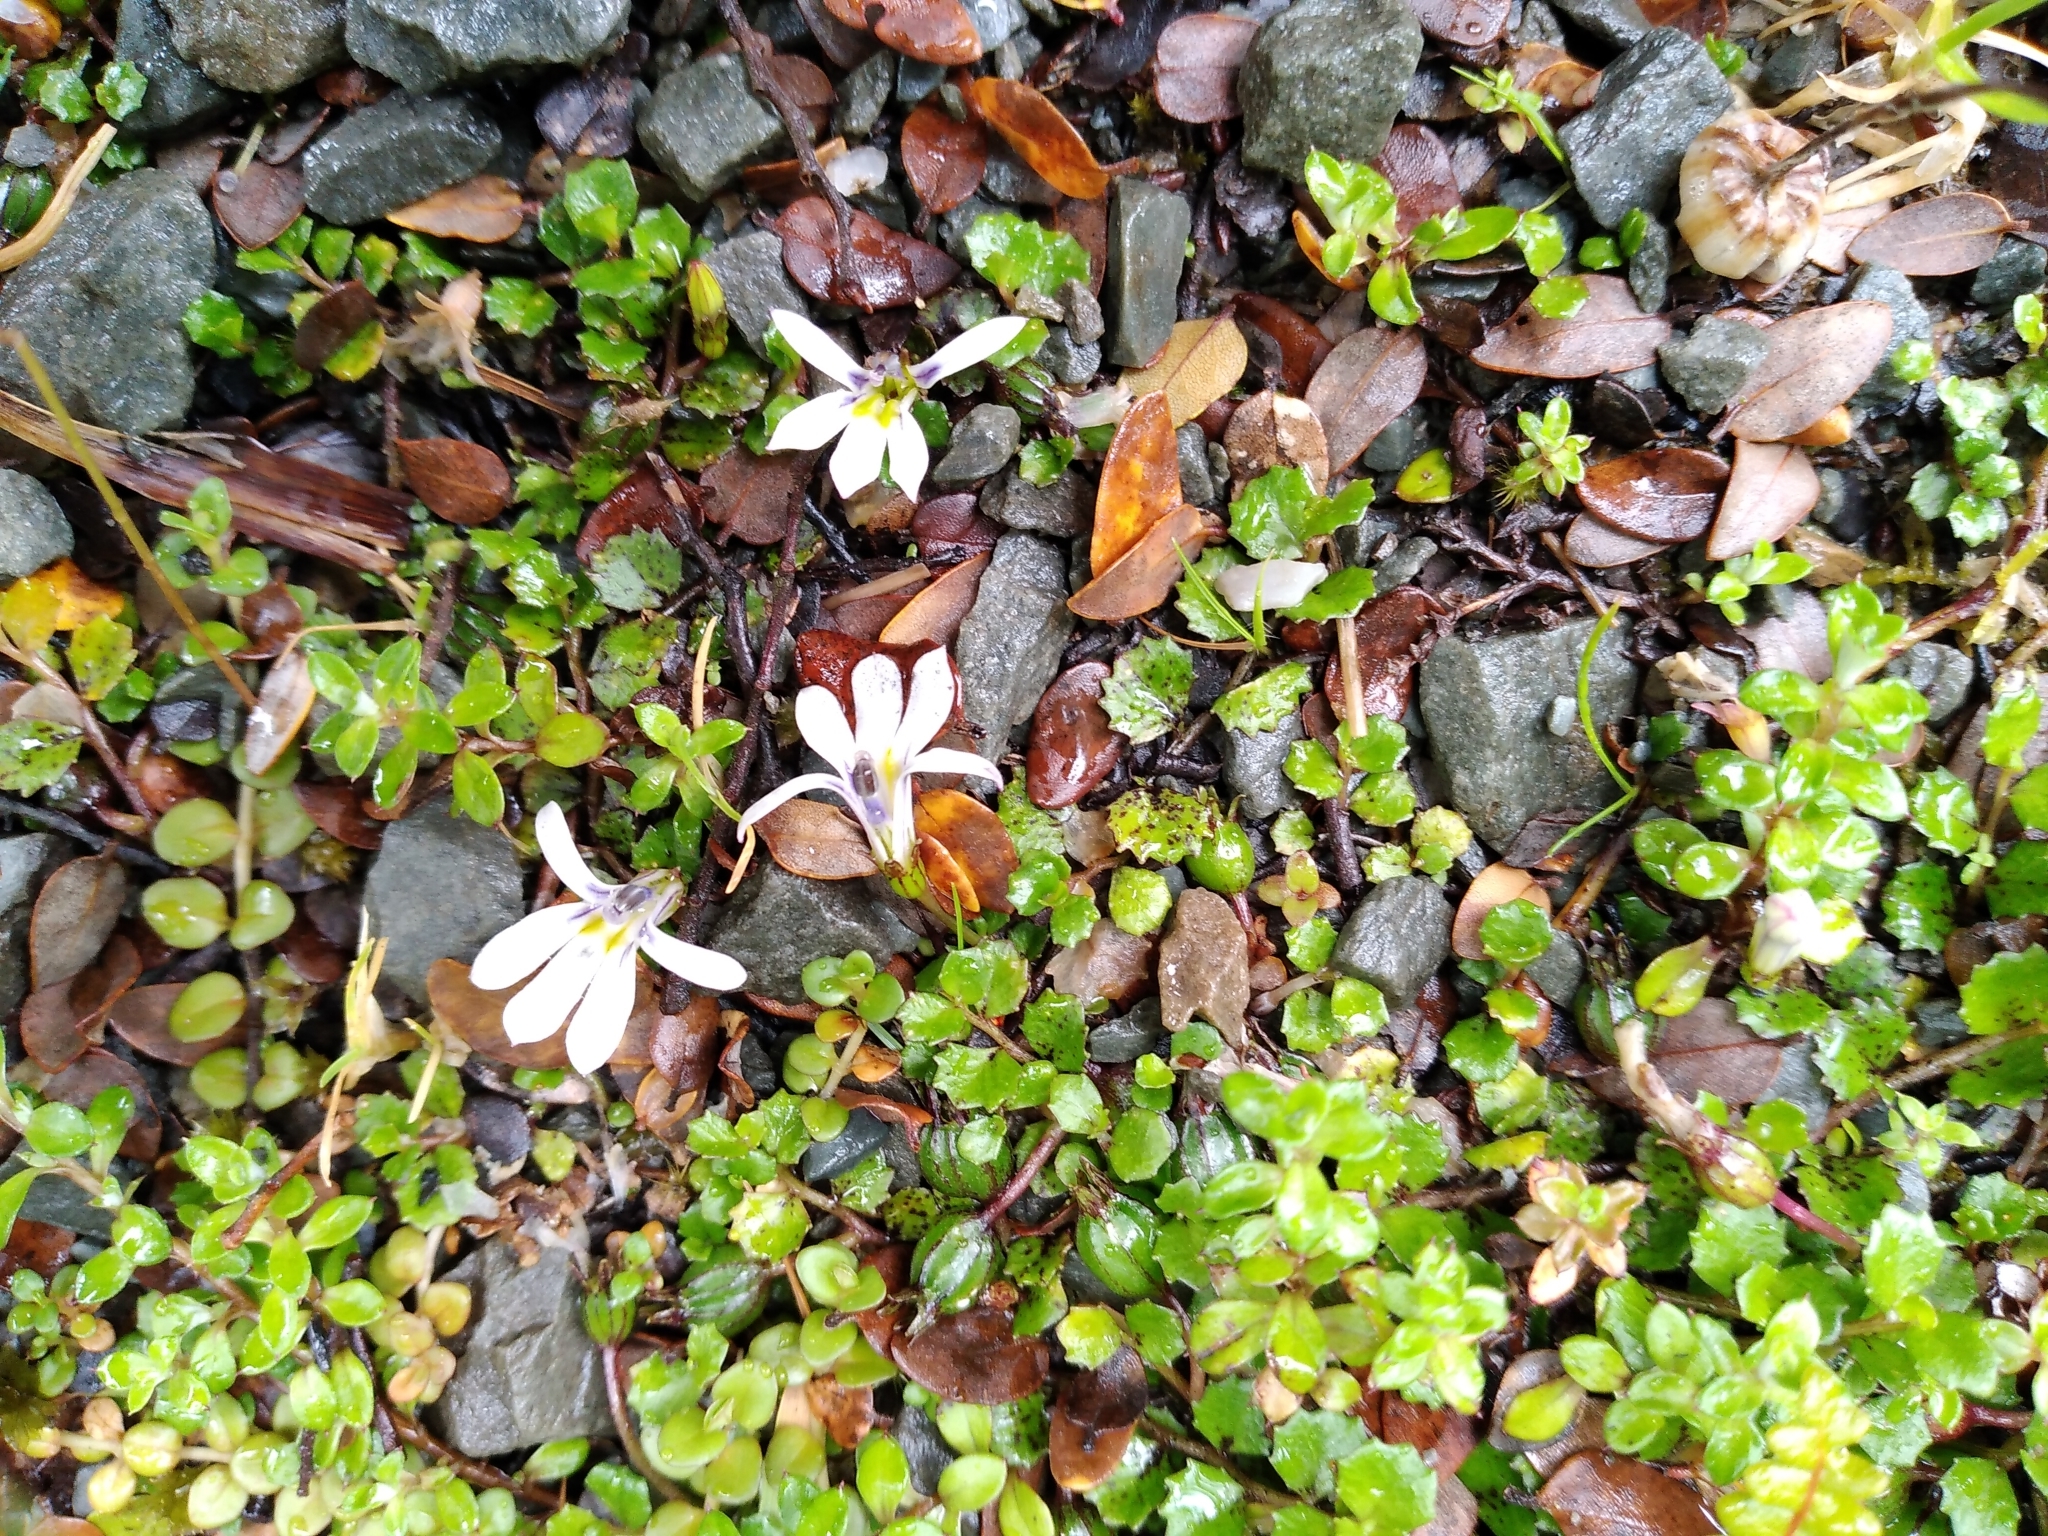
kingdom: Plantae
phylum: Tracheophyta
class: Magnoliopsida
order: Asterales
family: Campanulaceae
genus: Lobelia
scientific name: Lobelia angulata
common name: Lawn lobelia
